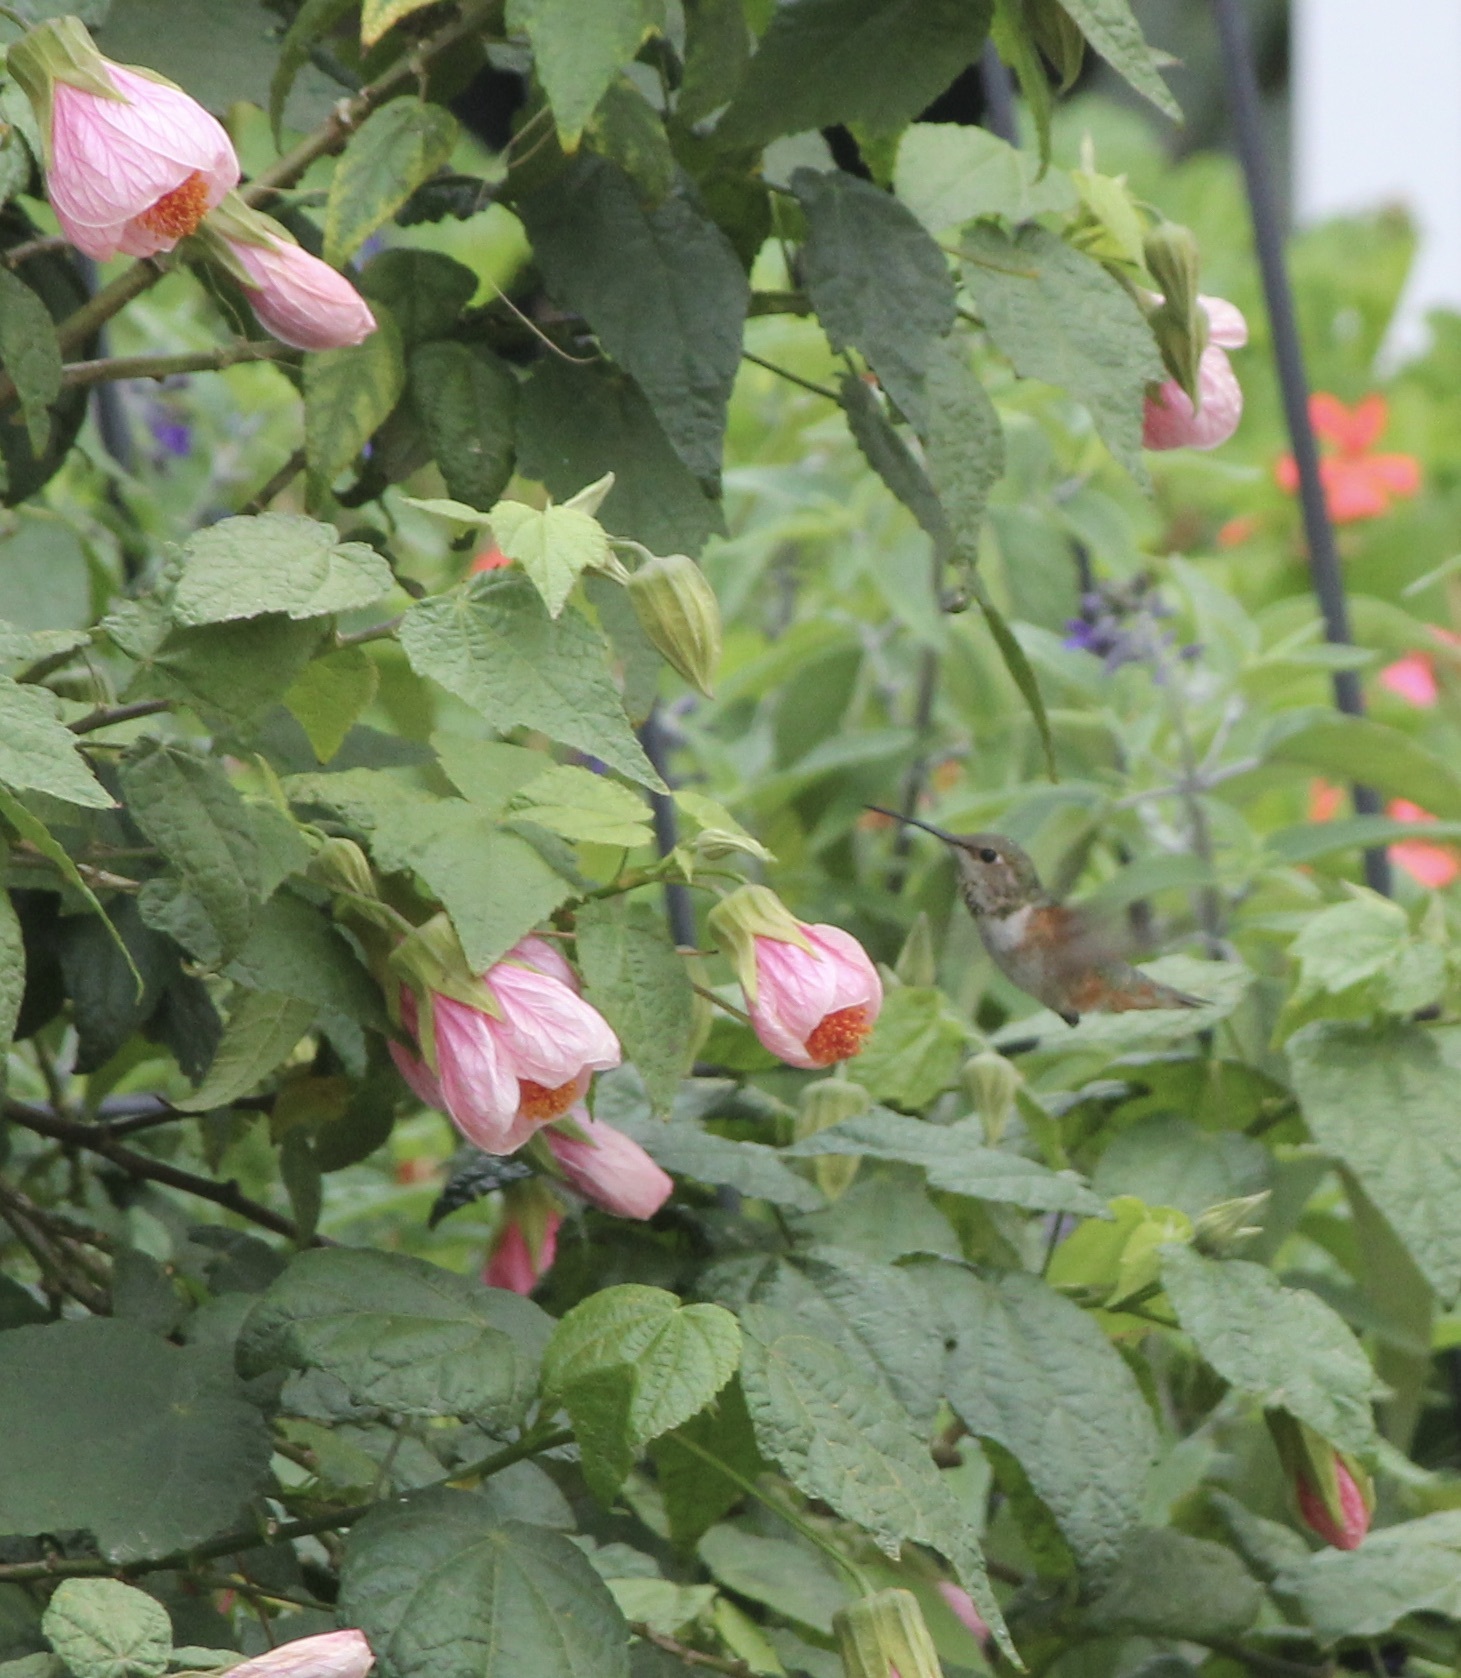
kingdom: Animalia
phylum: Chordata
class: Aves
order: Apodiformes
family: Trochilidae
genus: Selasphorus
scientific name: Selasphorus sasin
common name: Allen's hummingbird
